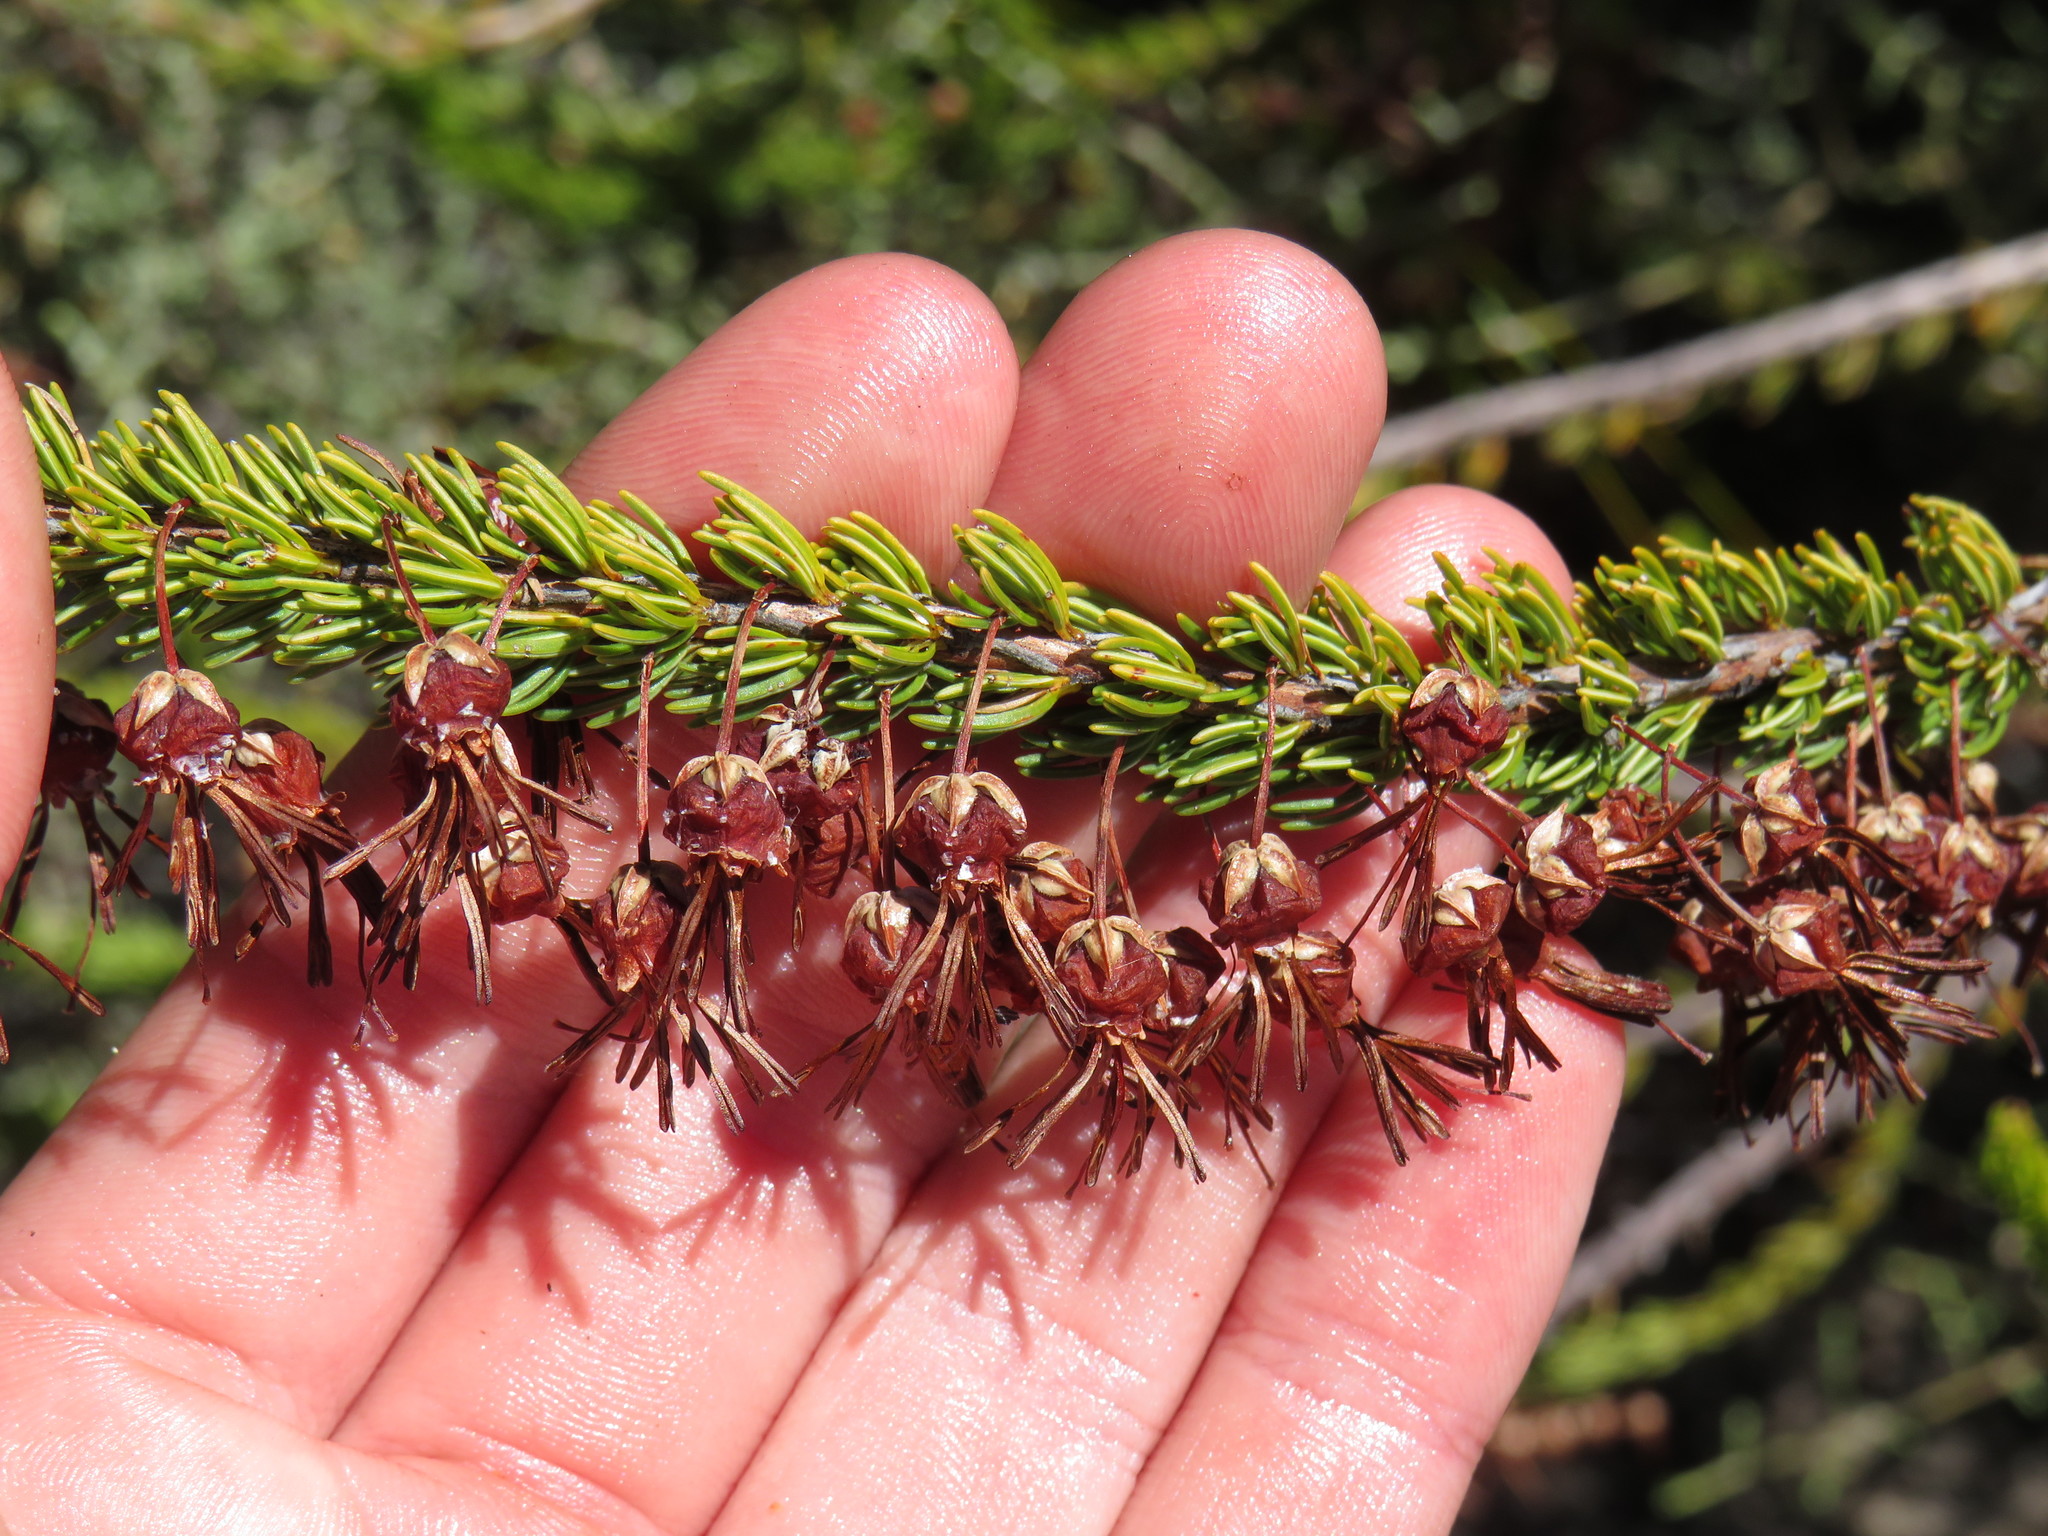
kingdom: Plantae
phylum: Tracheophyta
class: Magnoliopsida
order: Ericales
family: Ericaceae
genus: Erica
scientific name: Erica plukenetii
